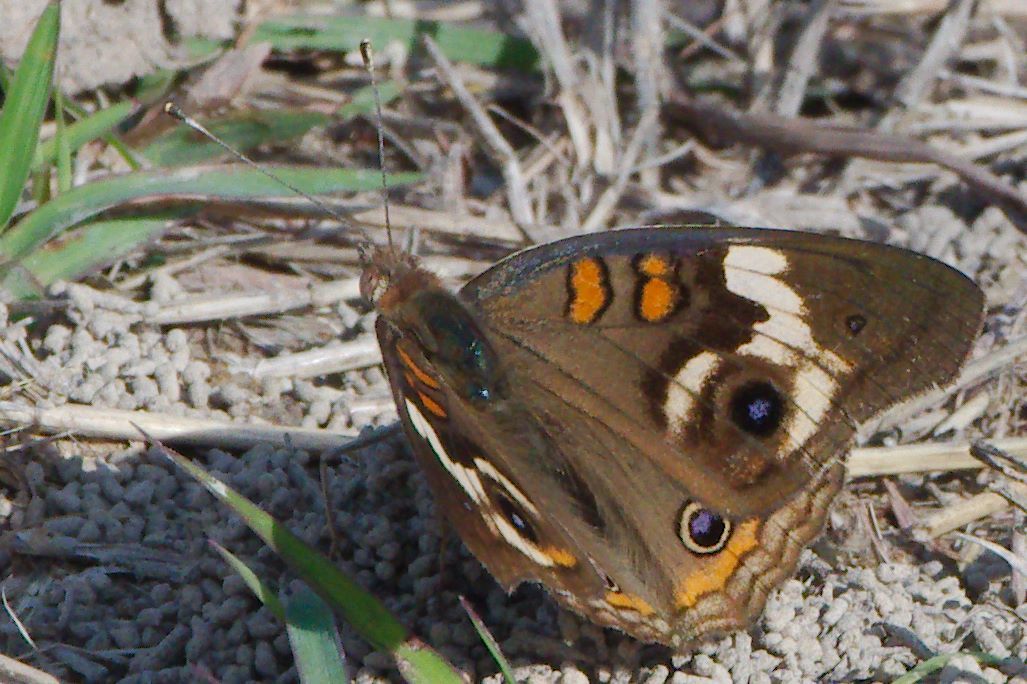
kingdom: Animalia
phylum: Arthropoda
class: Insecta
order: Lepidoptera
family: Nymphalidae
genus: Junonia
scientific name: Junonia coenia
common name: Common buckeye
